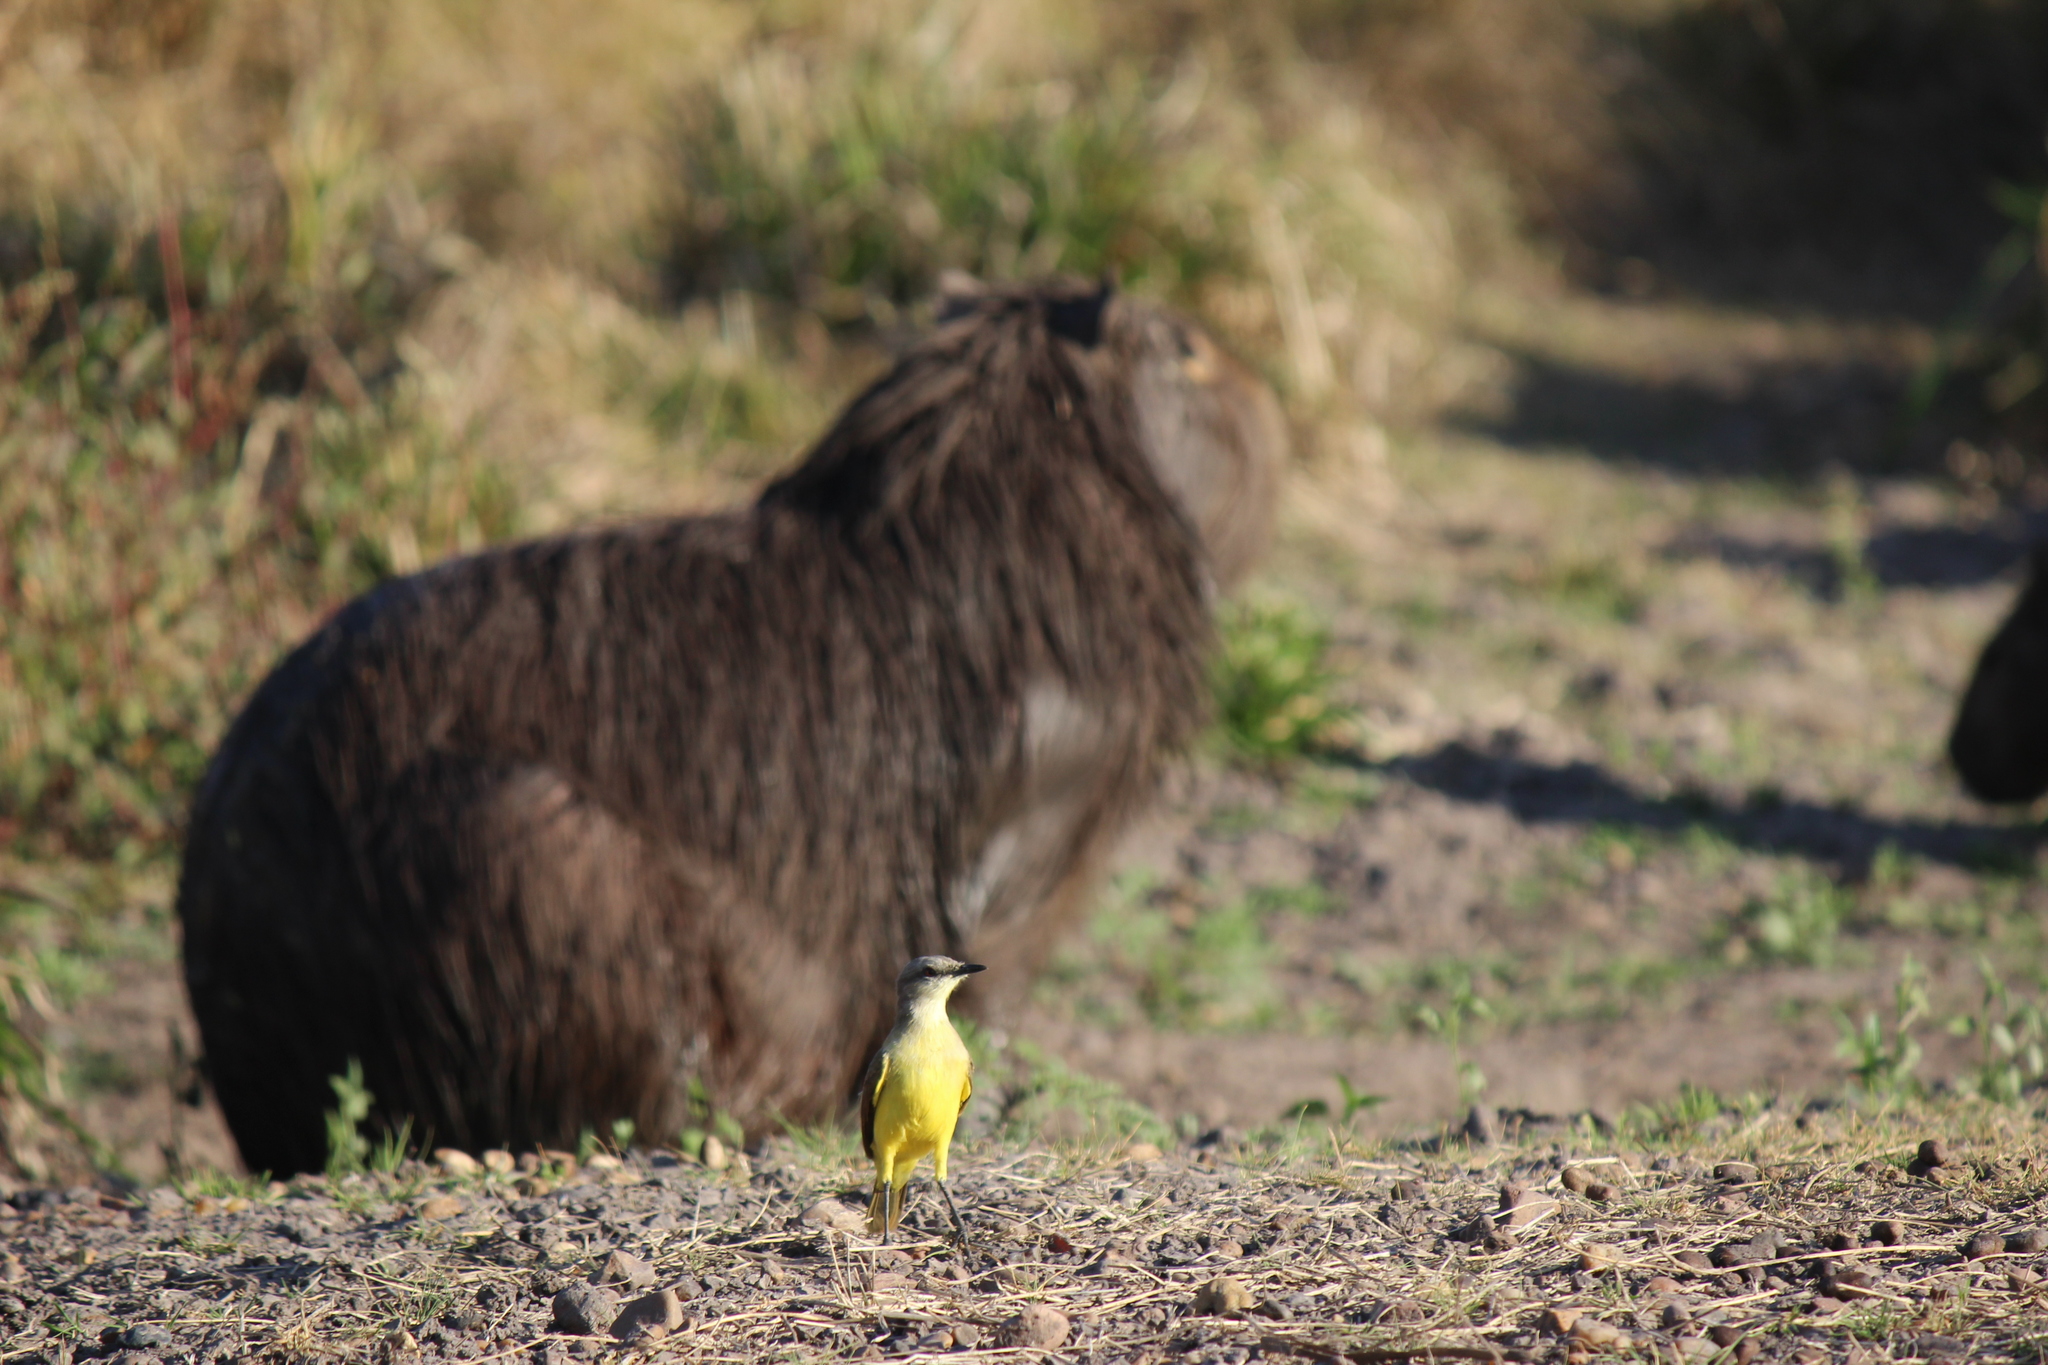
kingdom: Animalia
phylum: Chordata
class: Aves
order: Passeriformes
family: Tyrannidae
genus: Machetornis
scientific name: Machetornis rixosa
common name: Cattle tyrant
